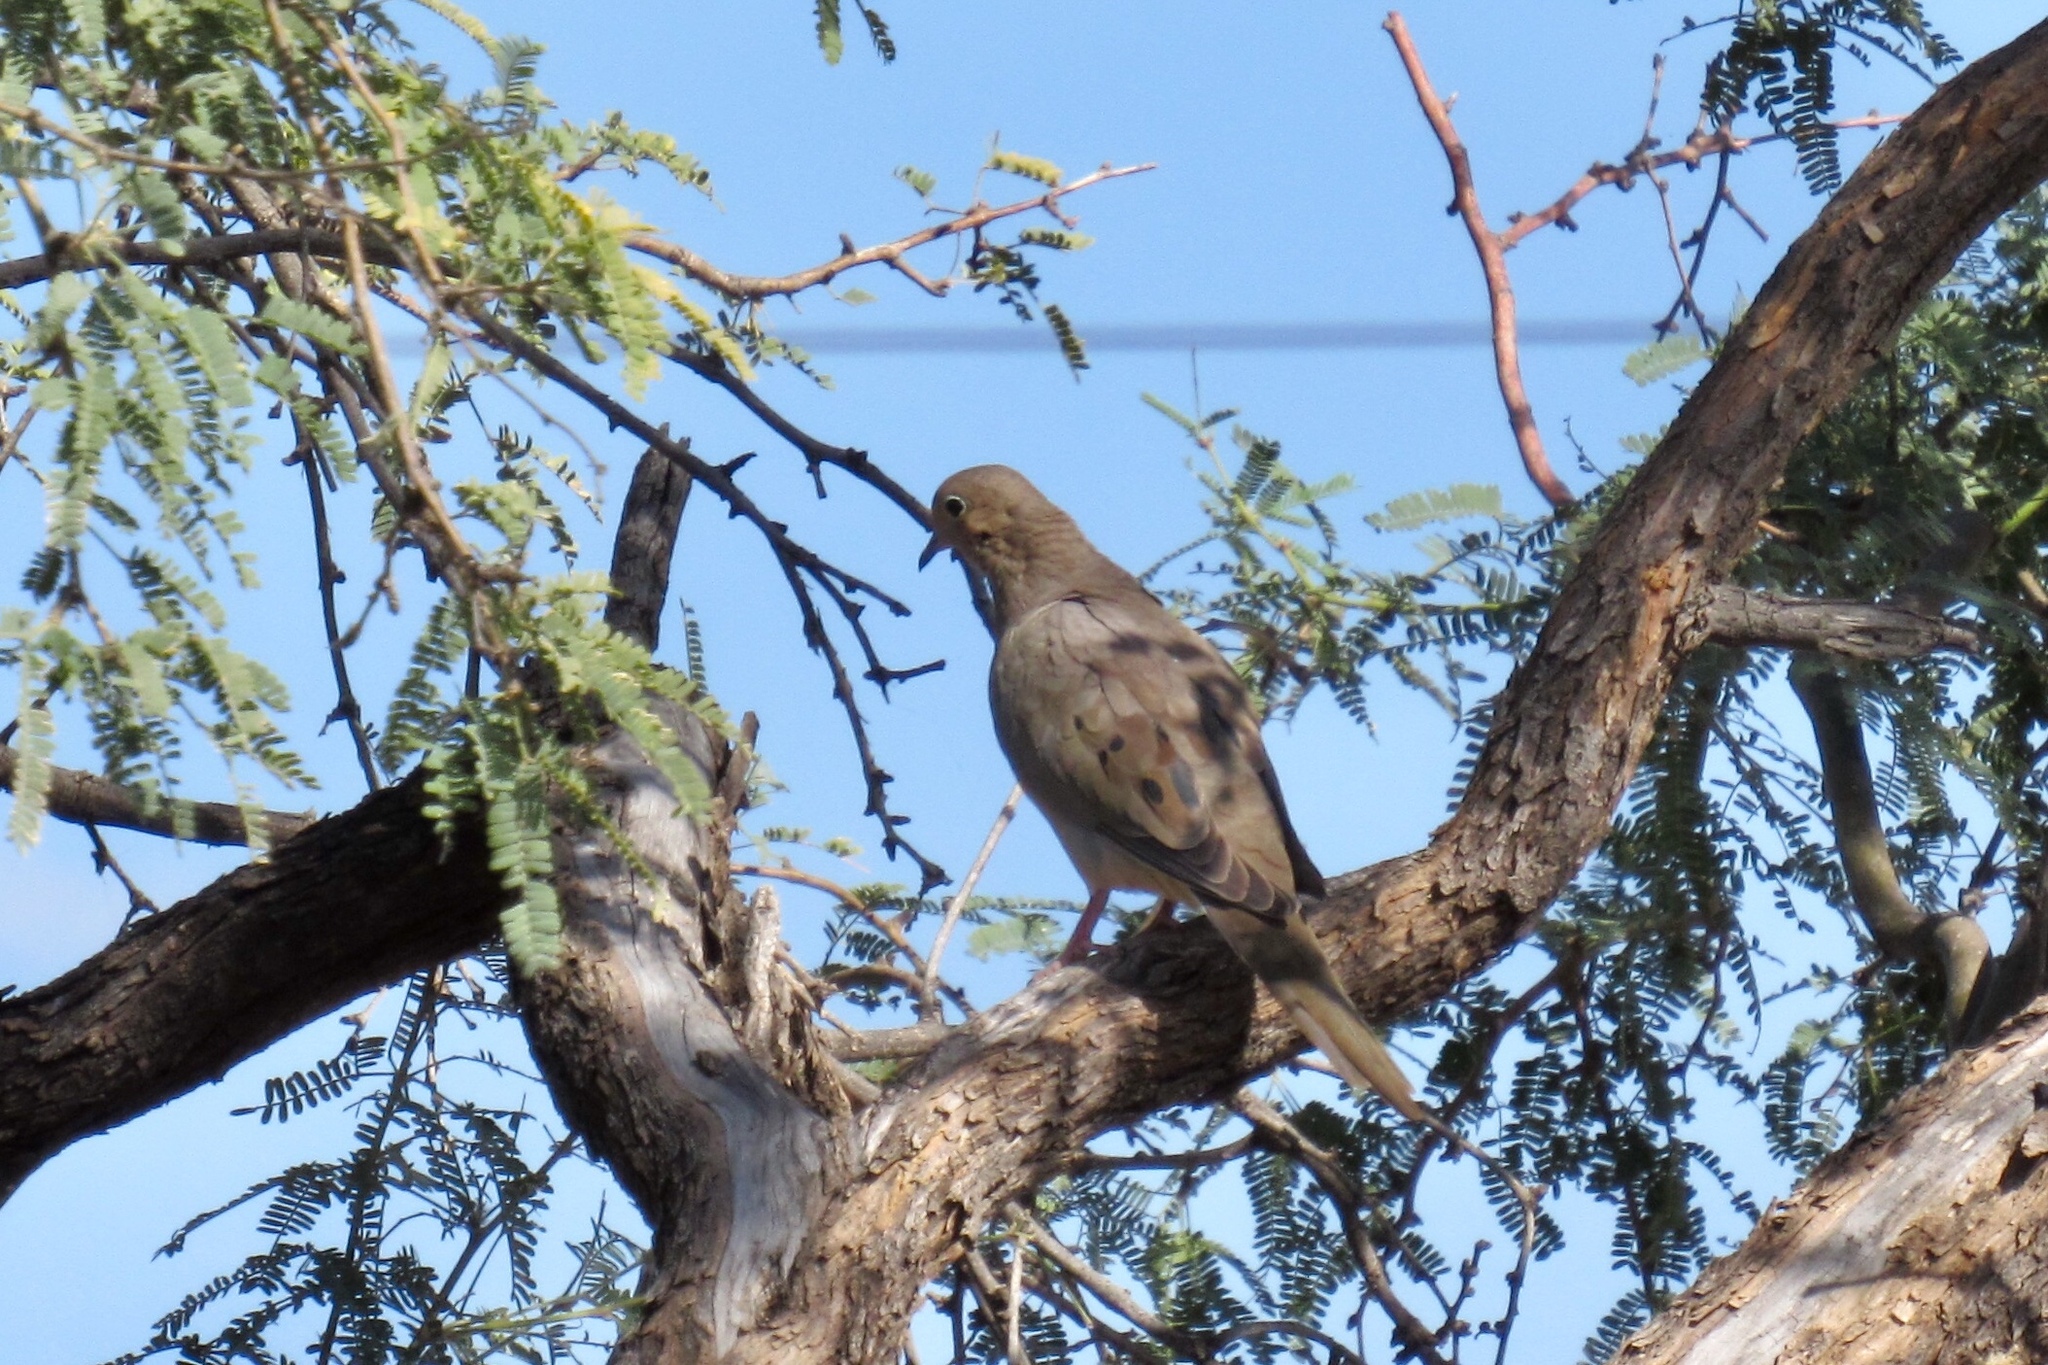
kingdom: Animalia
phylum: Chordata
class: Aves
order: Columbiformes
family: Columbidae
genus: Zenaida
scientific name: Zenaida macroura
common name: Mourning dove
